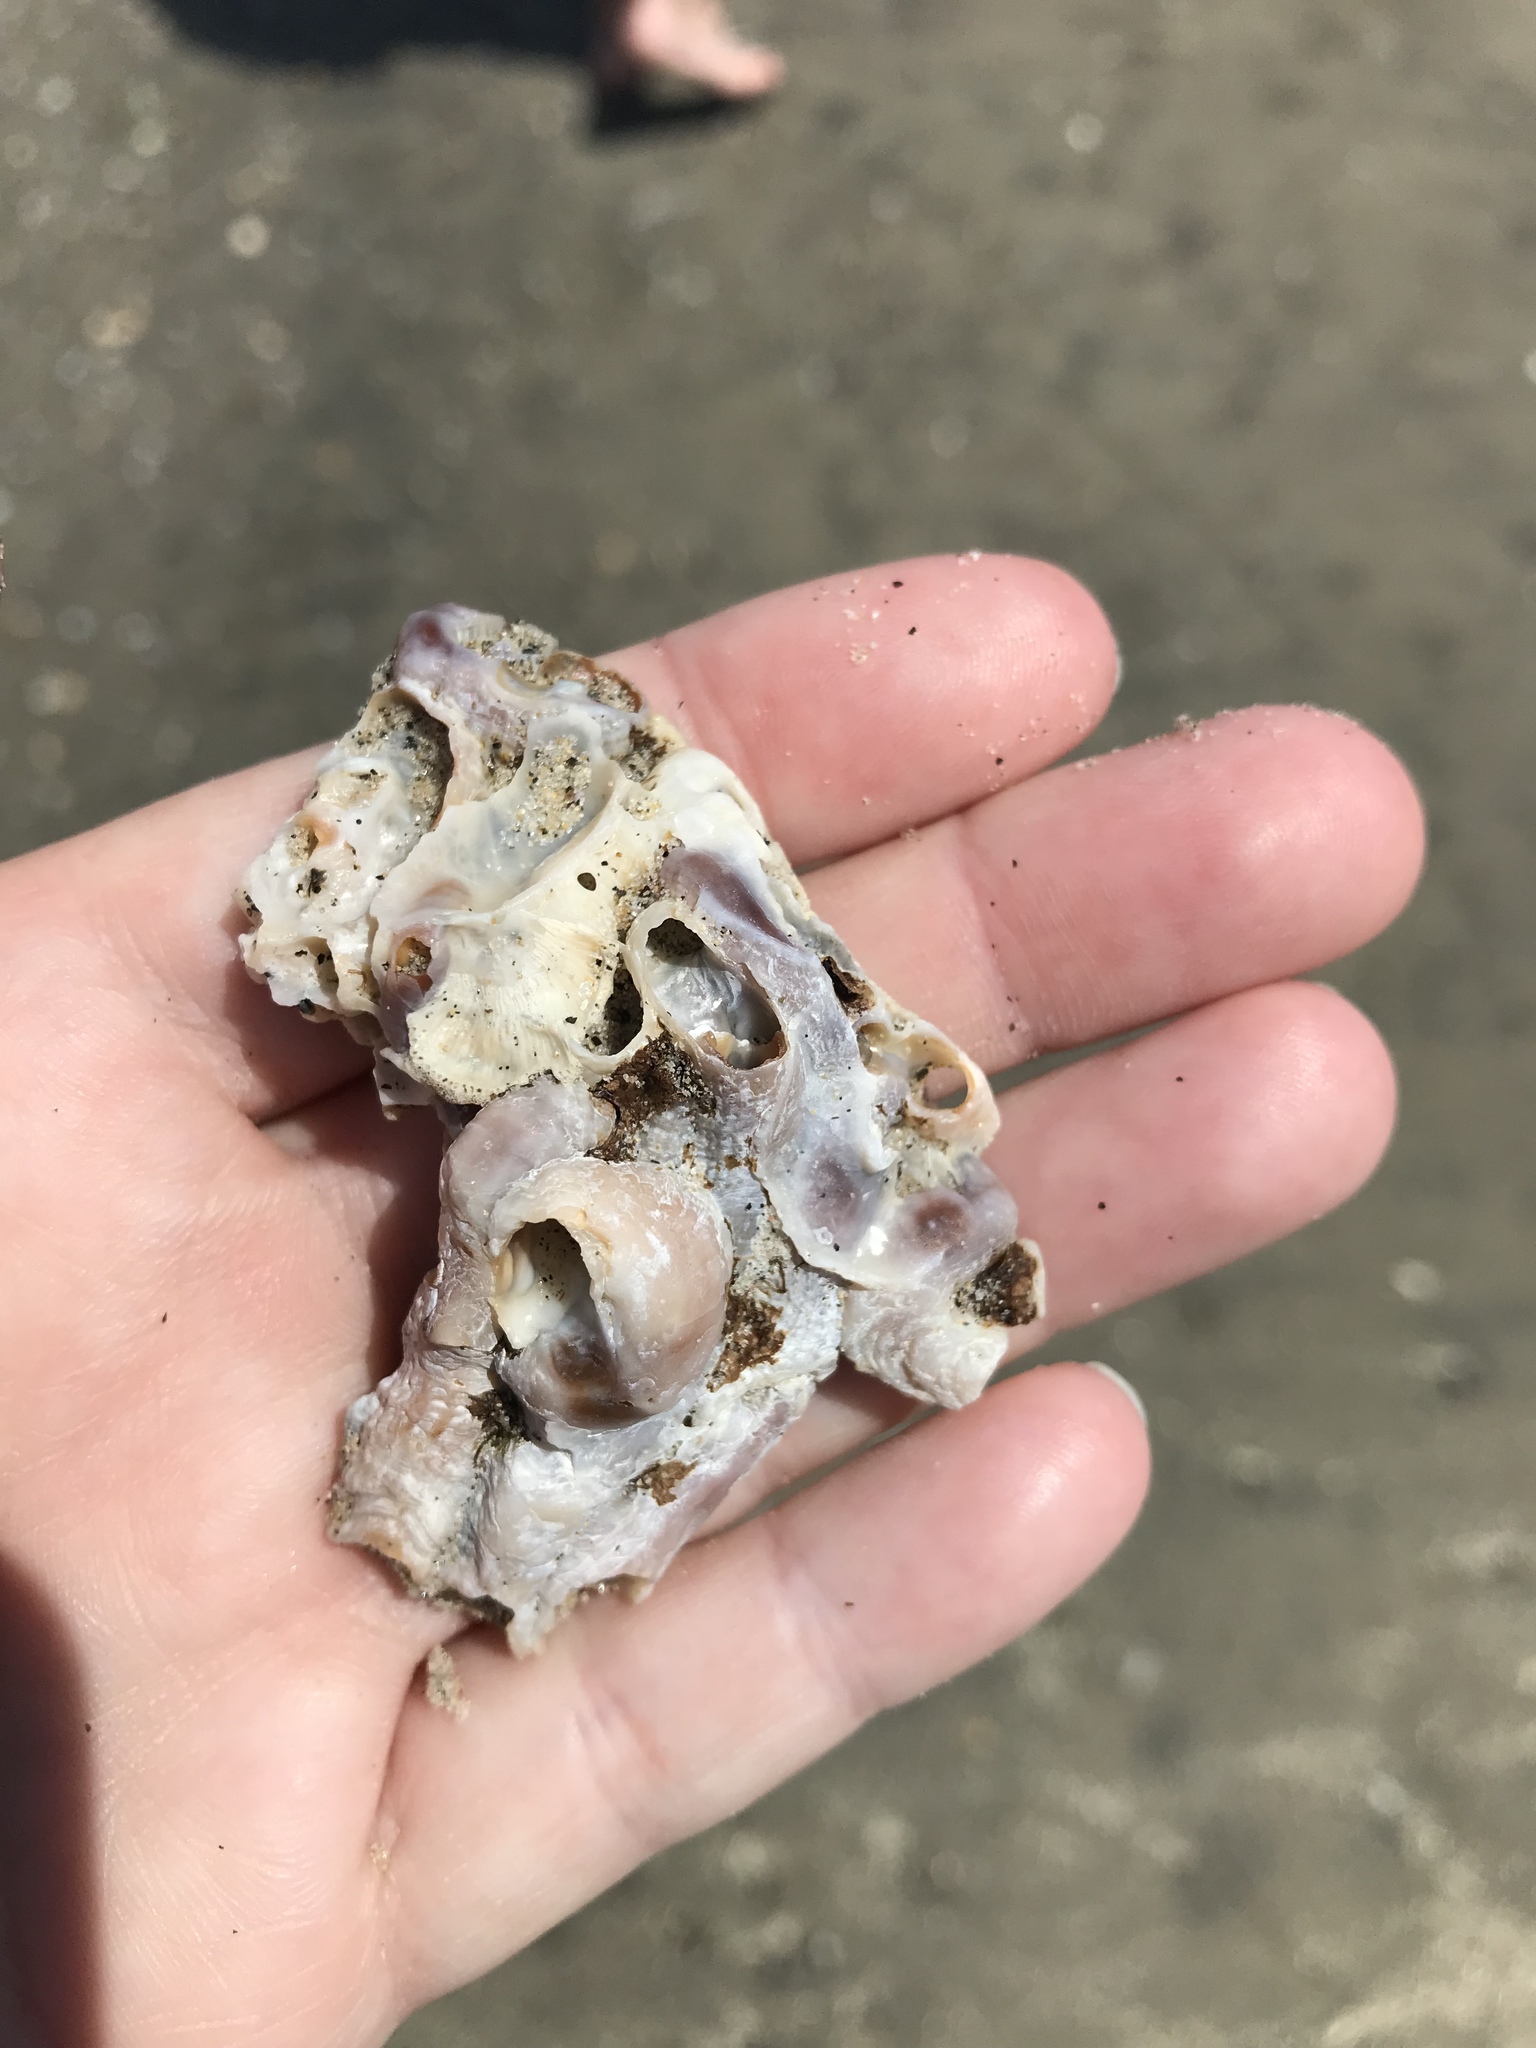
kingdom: Animalia
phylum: Mollusca
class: Gastropoda
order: Littorinimorpha
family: Vermetidae
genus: Thylacodes
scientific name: Thylacodes squamigerus
